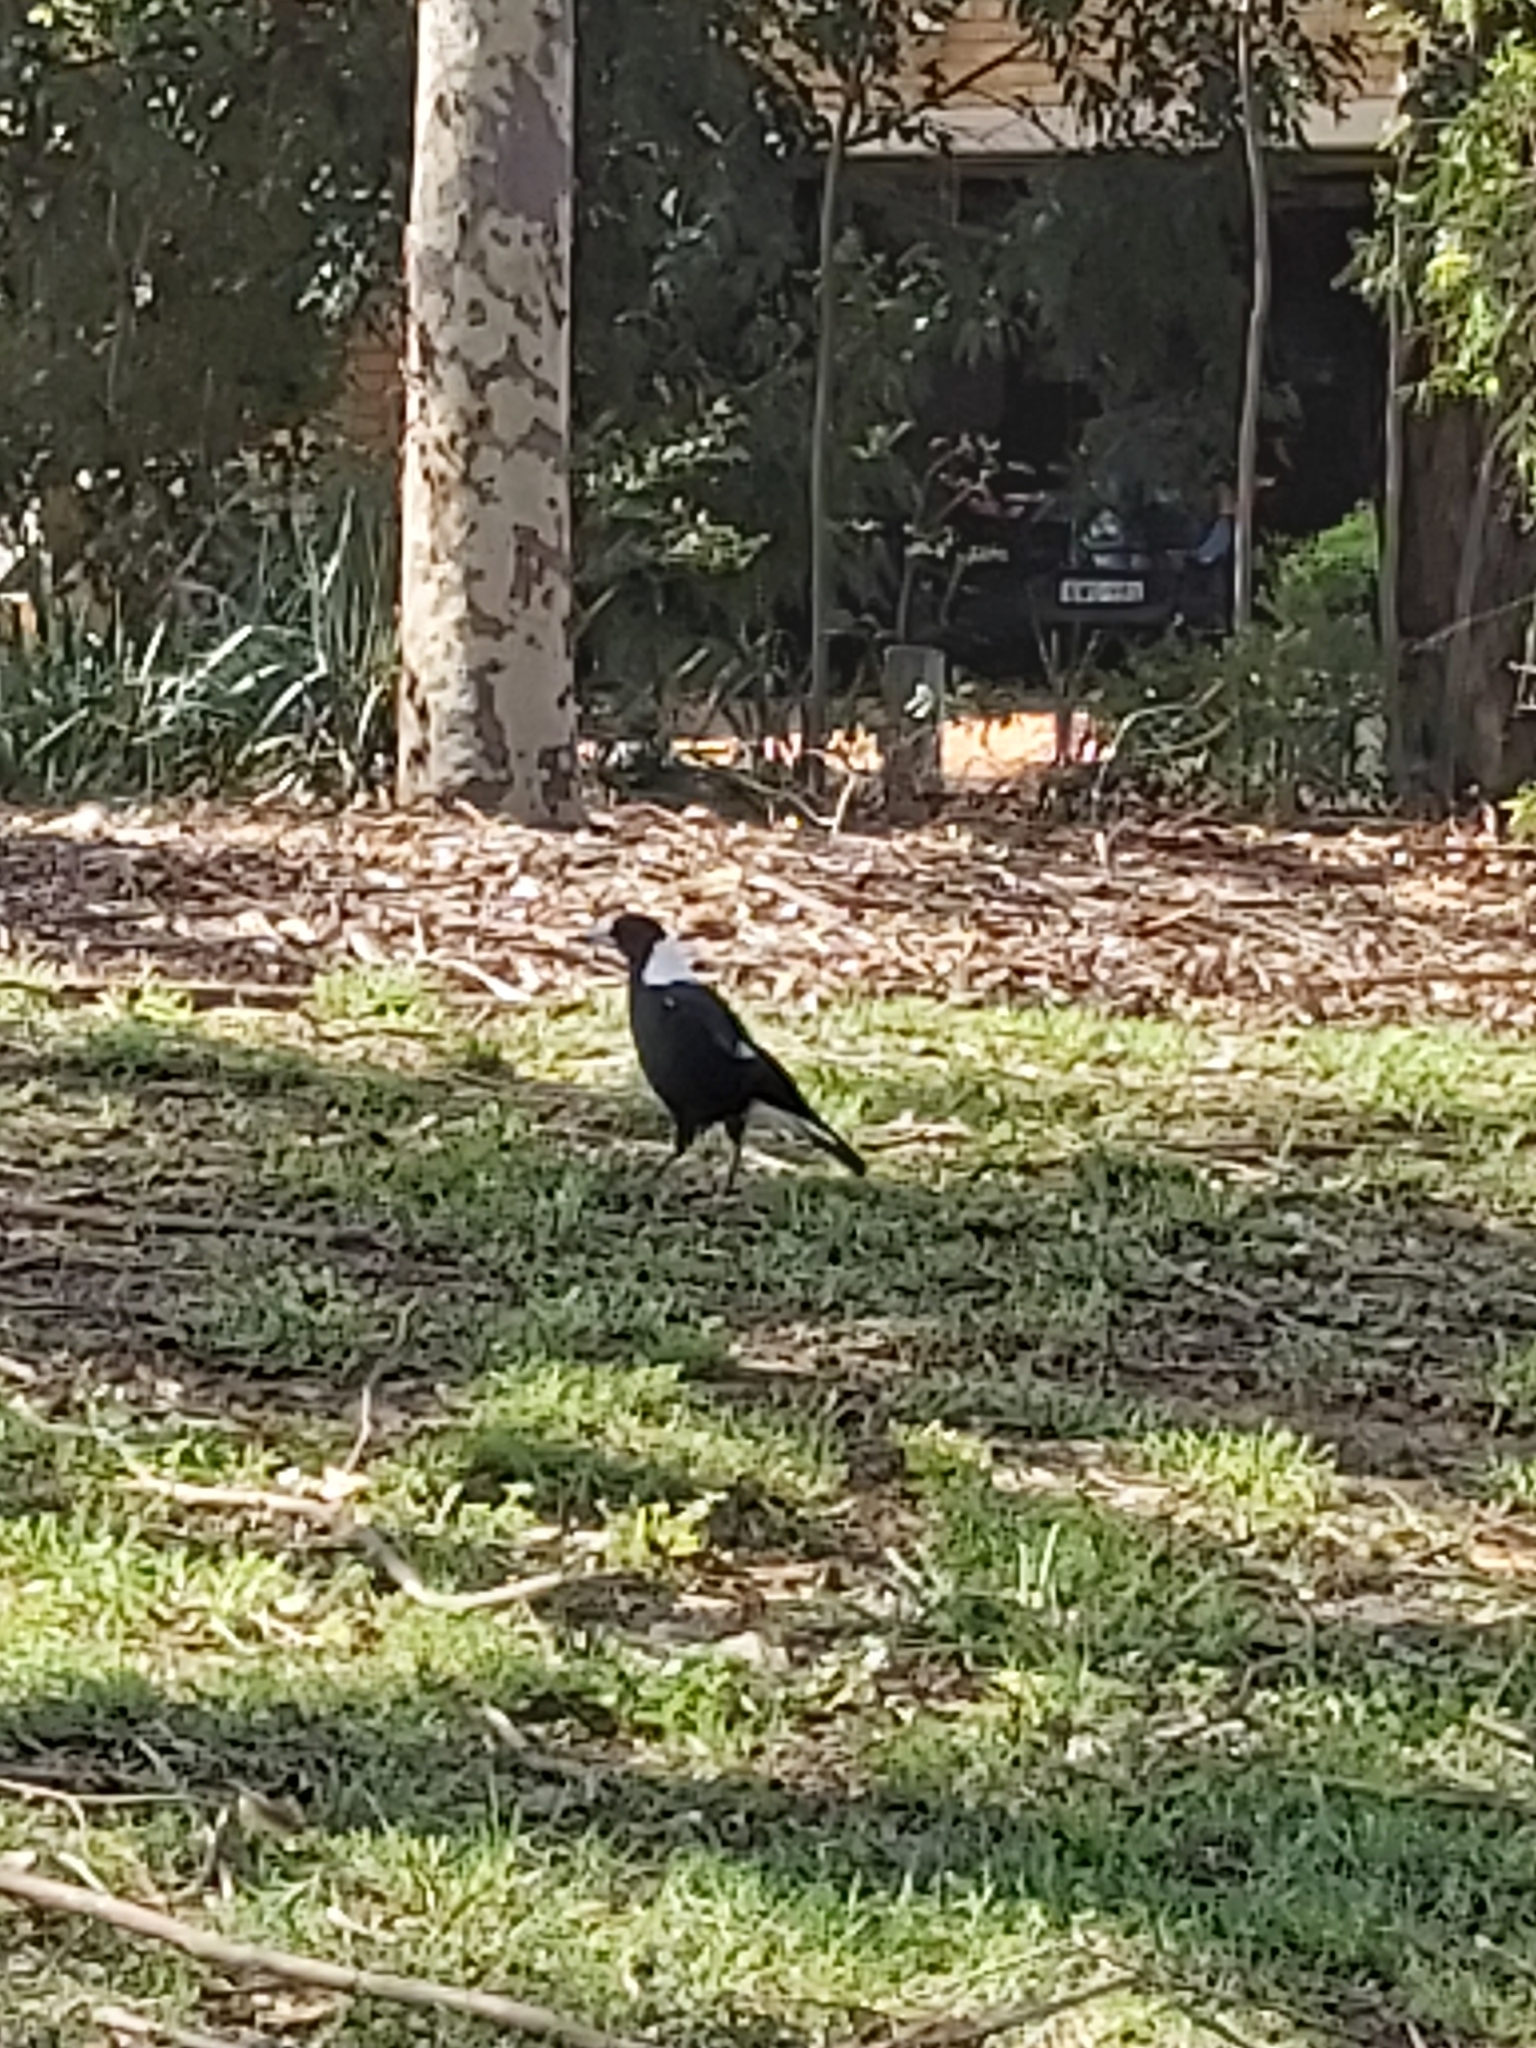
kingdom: Animalia
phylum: Chordata
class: Aves
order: Passeriformes
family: Cracticidae
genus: Gymnorhina
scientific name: Gymnorhina tibicen
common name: Australian magpie
